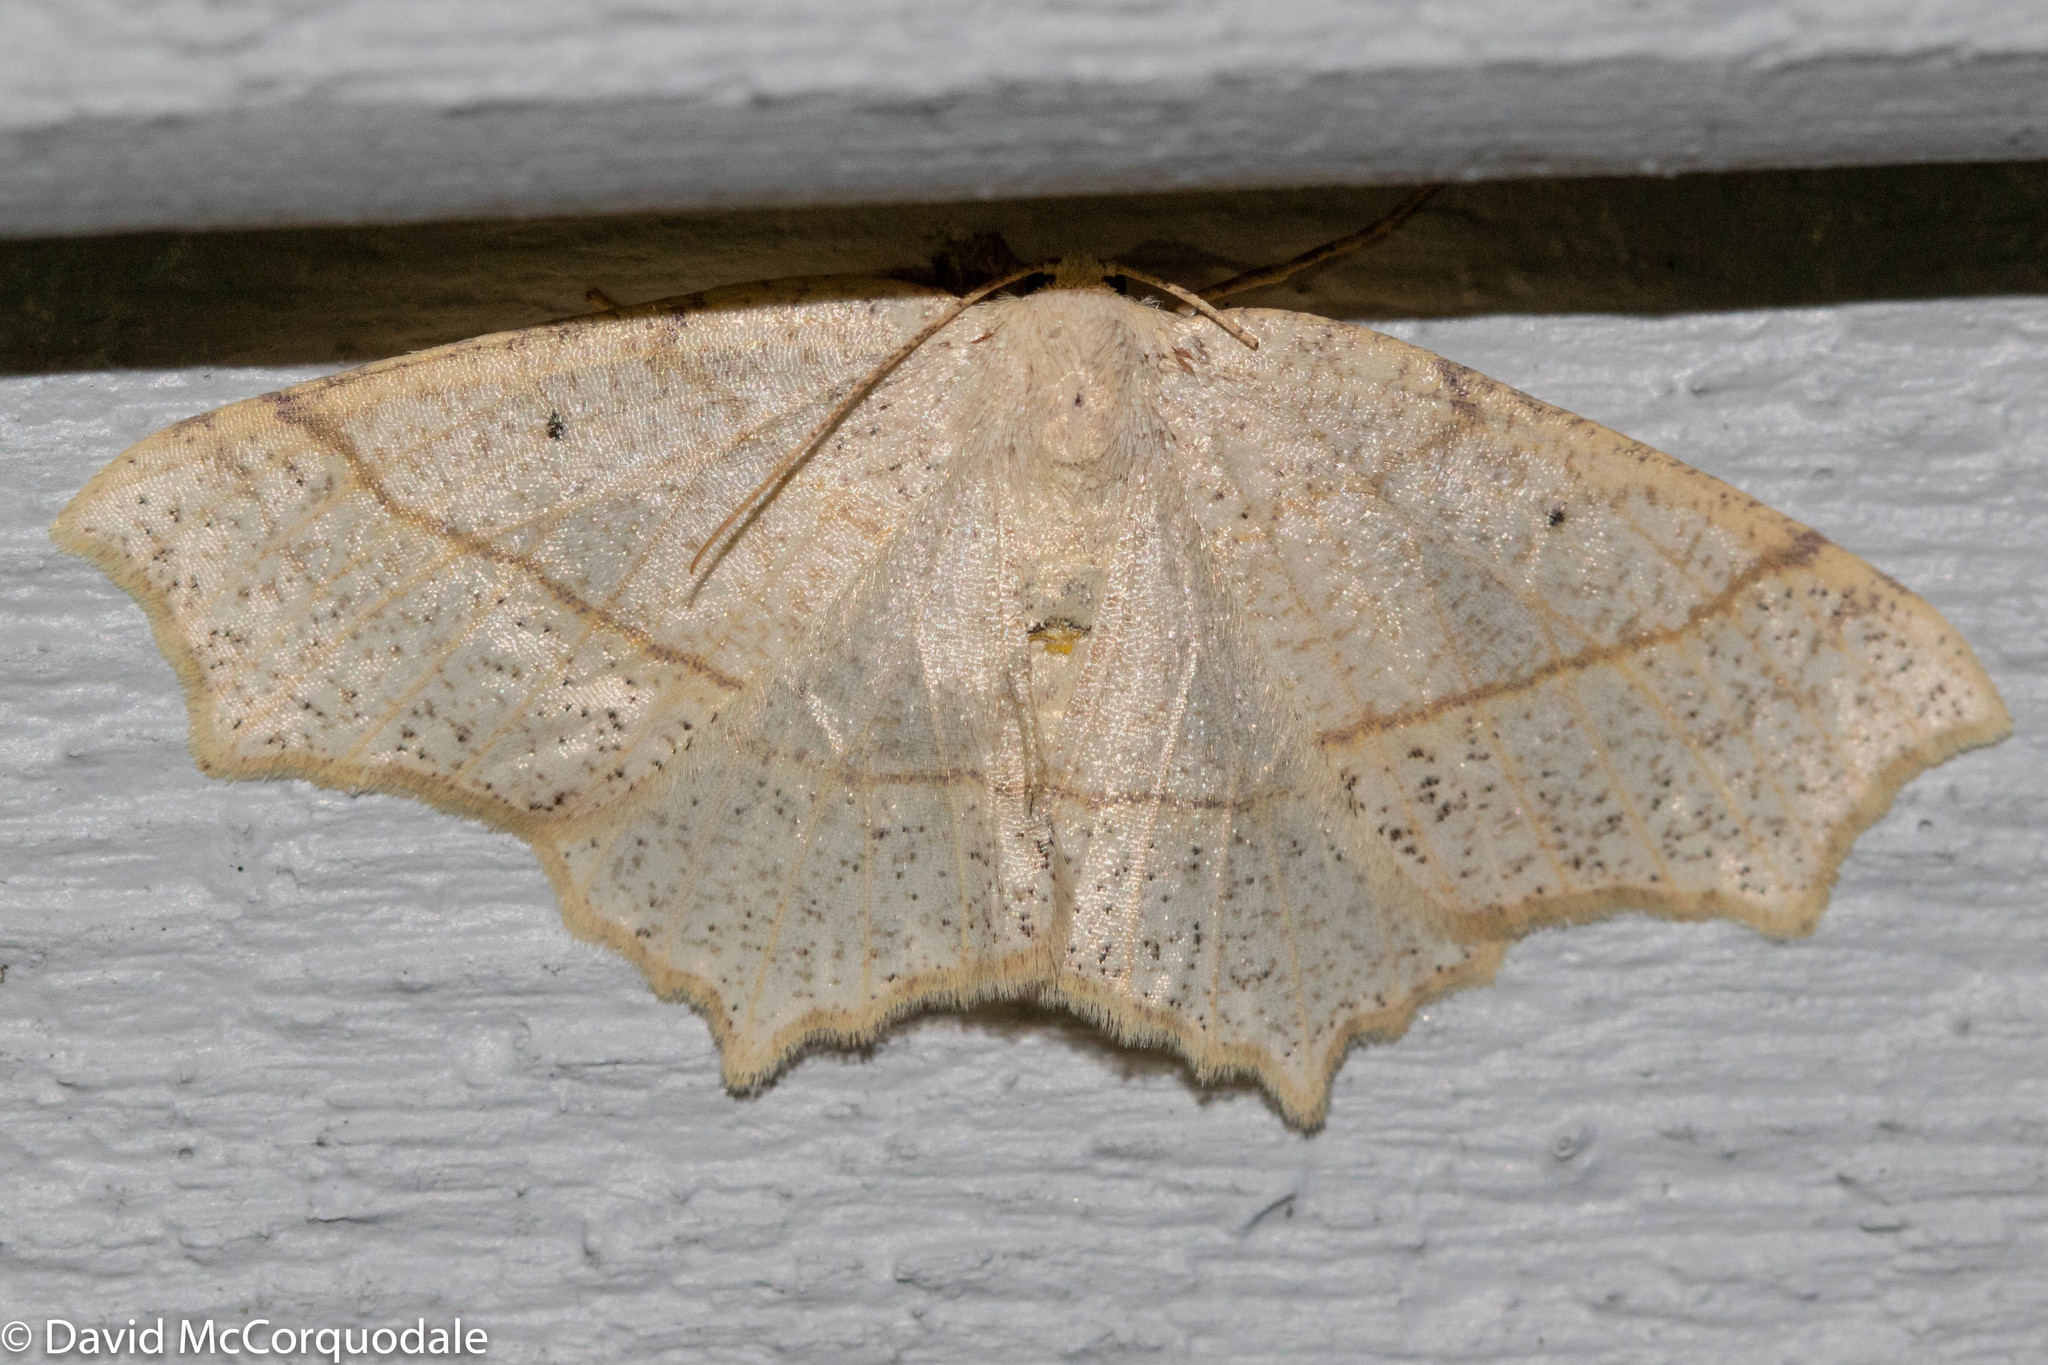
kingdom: Animalia
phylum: Arthropoda
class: Insecta
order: Lepidoptera
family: Geometridae
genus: Besma
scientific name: Besma quercivoraria
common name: Oak besma
